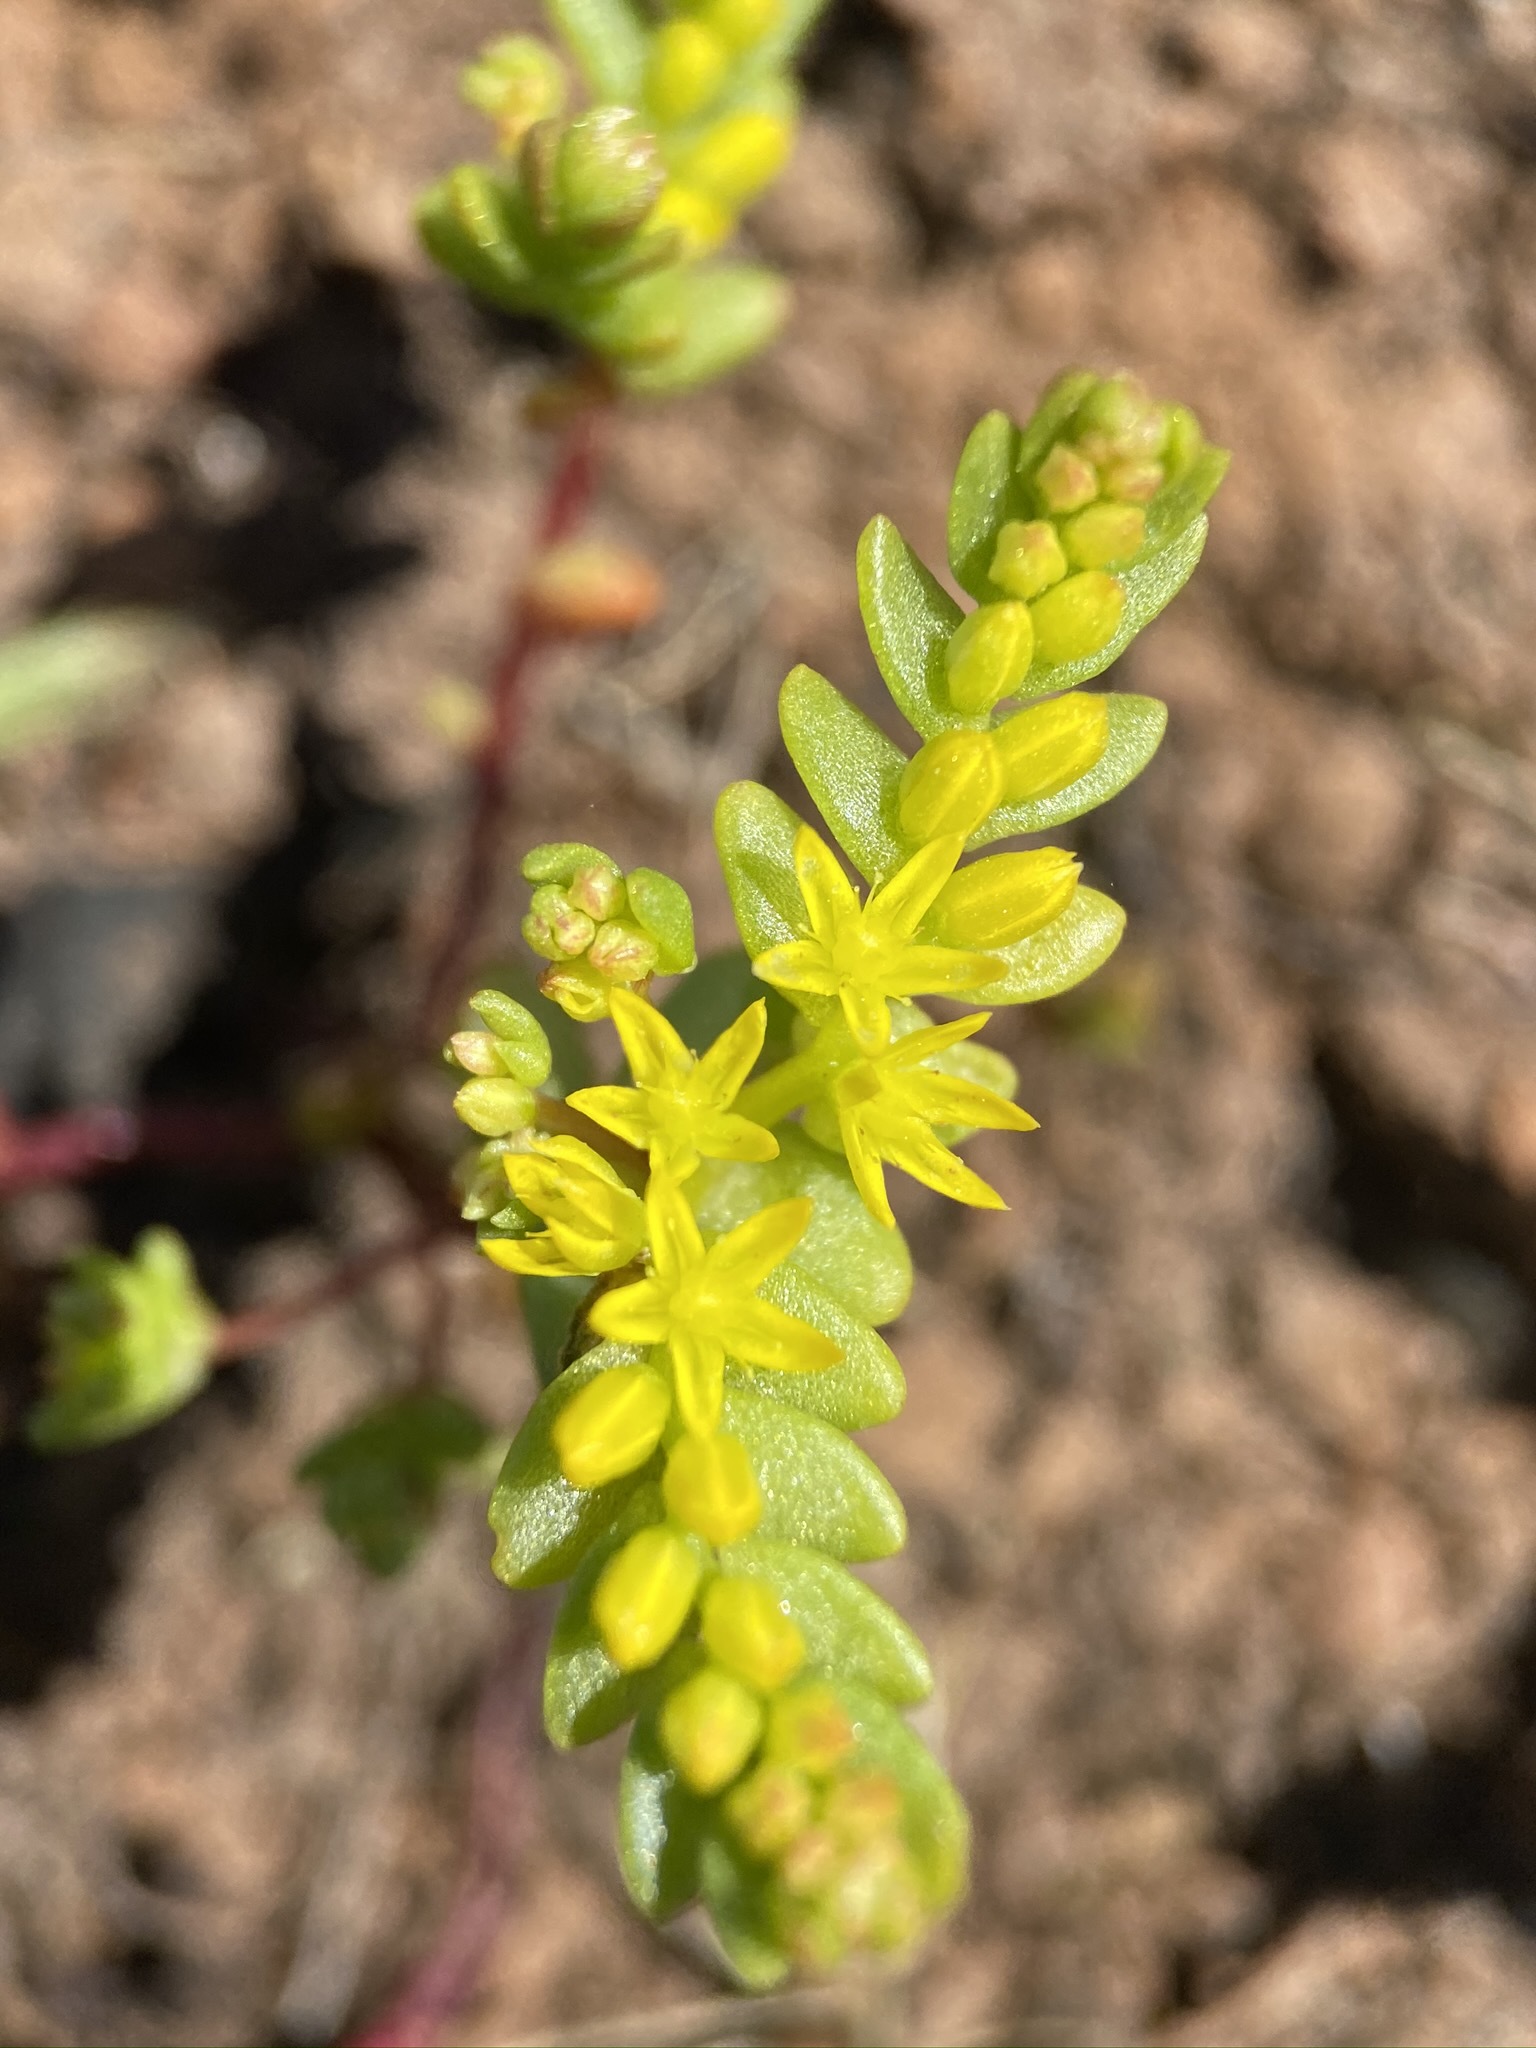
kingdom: Plantae
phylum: Tracheophyta
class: Magnoliopsida
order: Saxifragales
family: Crassulaceae
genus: Sedella
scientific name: Sedella pumila
